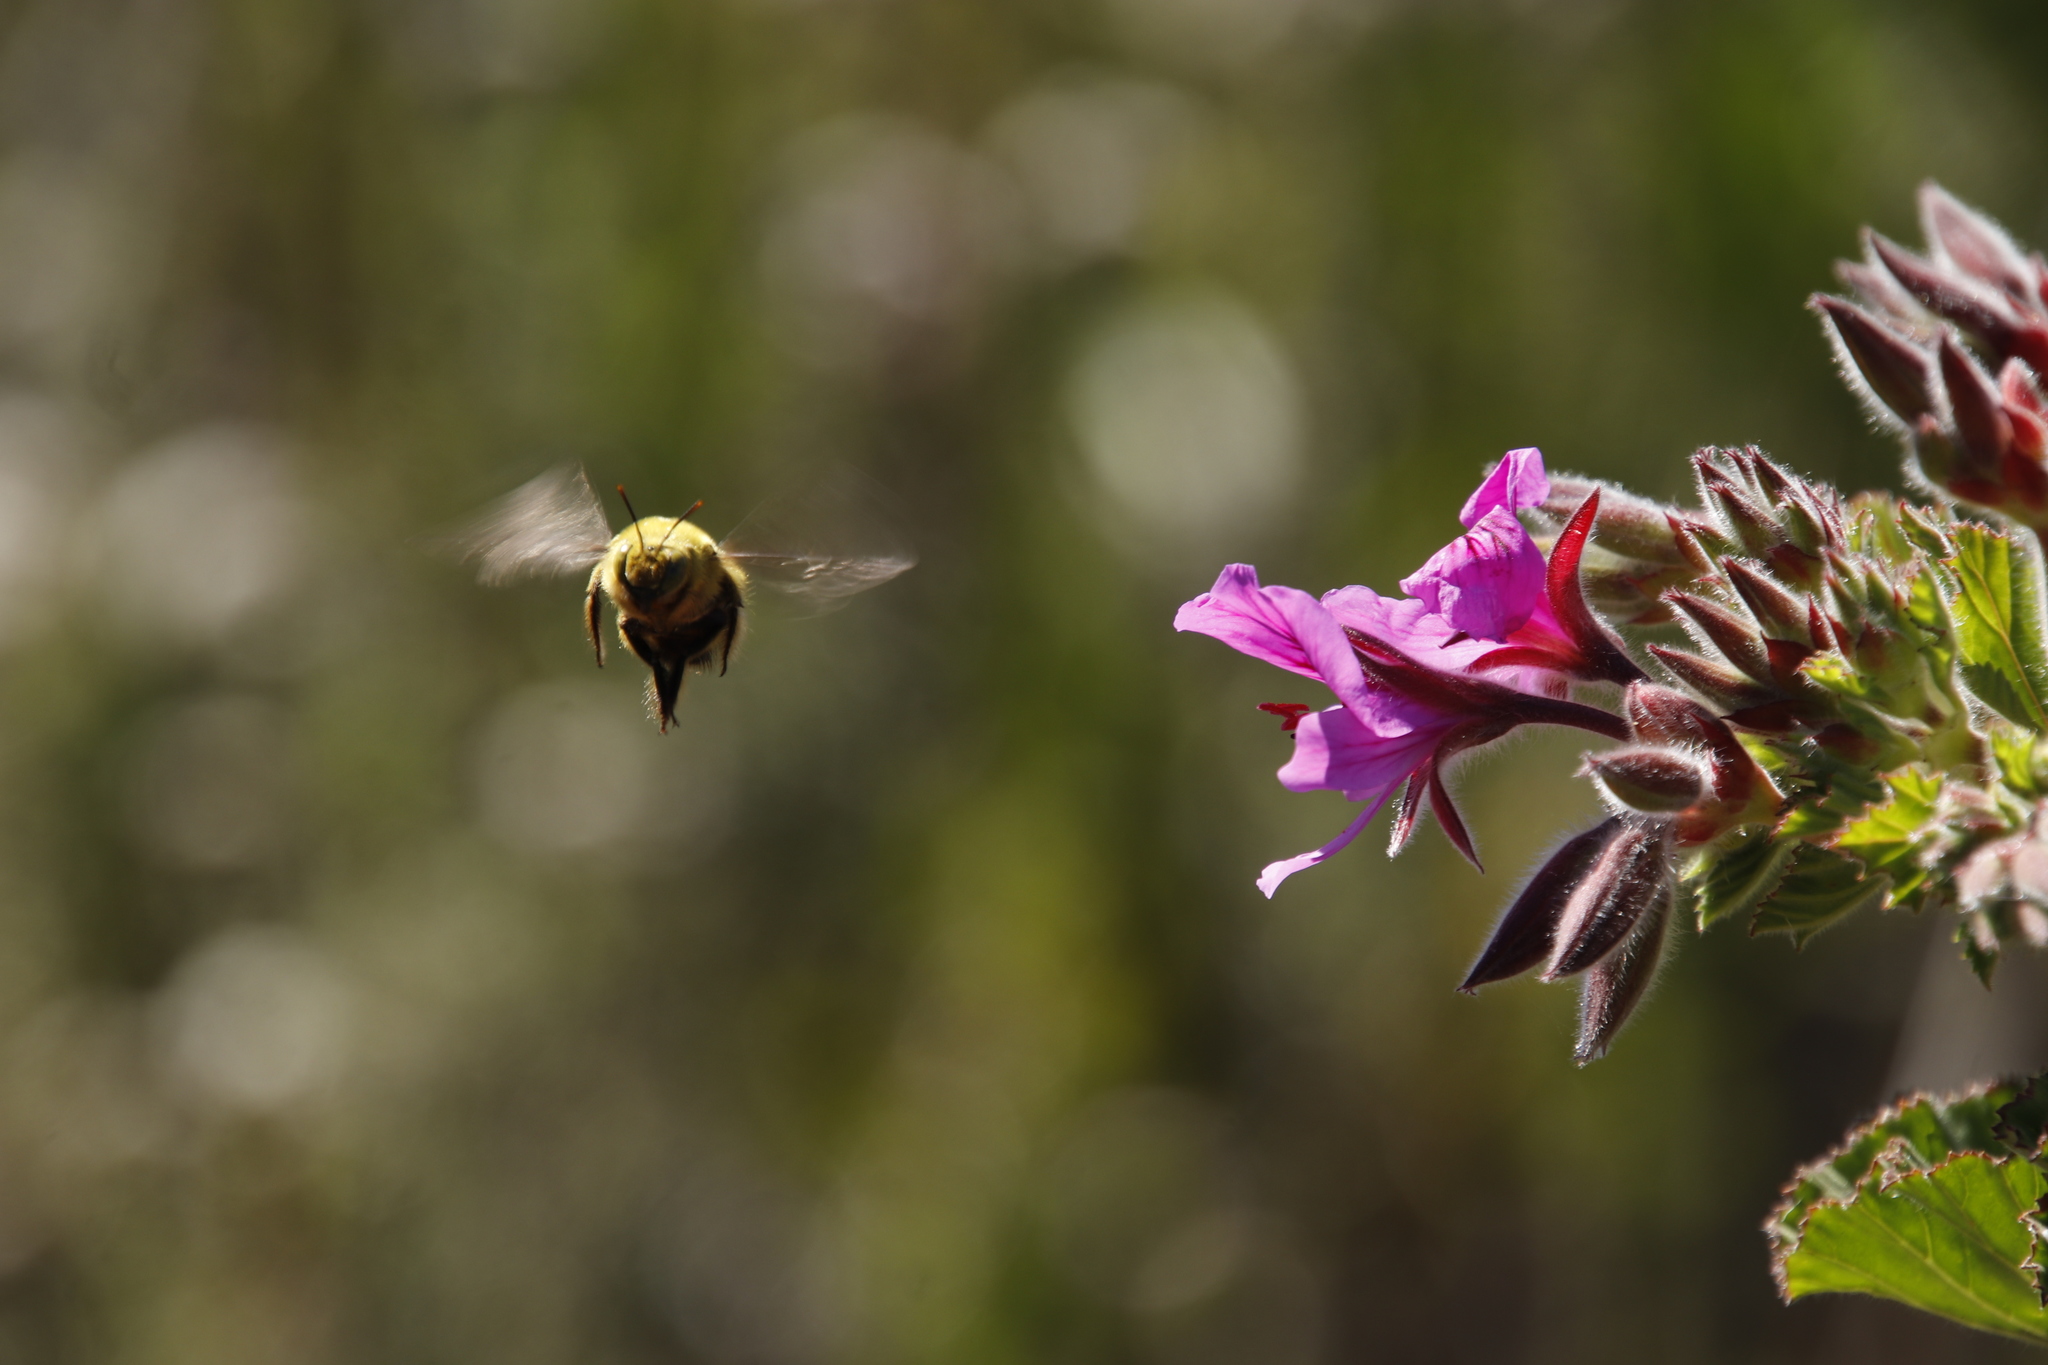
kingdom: Plantae
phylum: Tracheophyta
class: Magnoliopsida
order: Geraniales
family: Geraniaceae
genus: Pelargonium
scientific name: Pelargonium cucullatum
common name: Tree pelargonium
